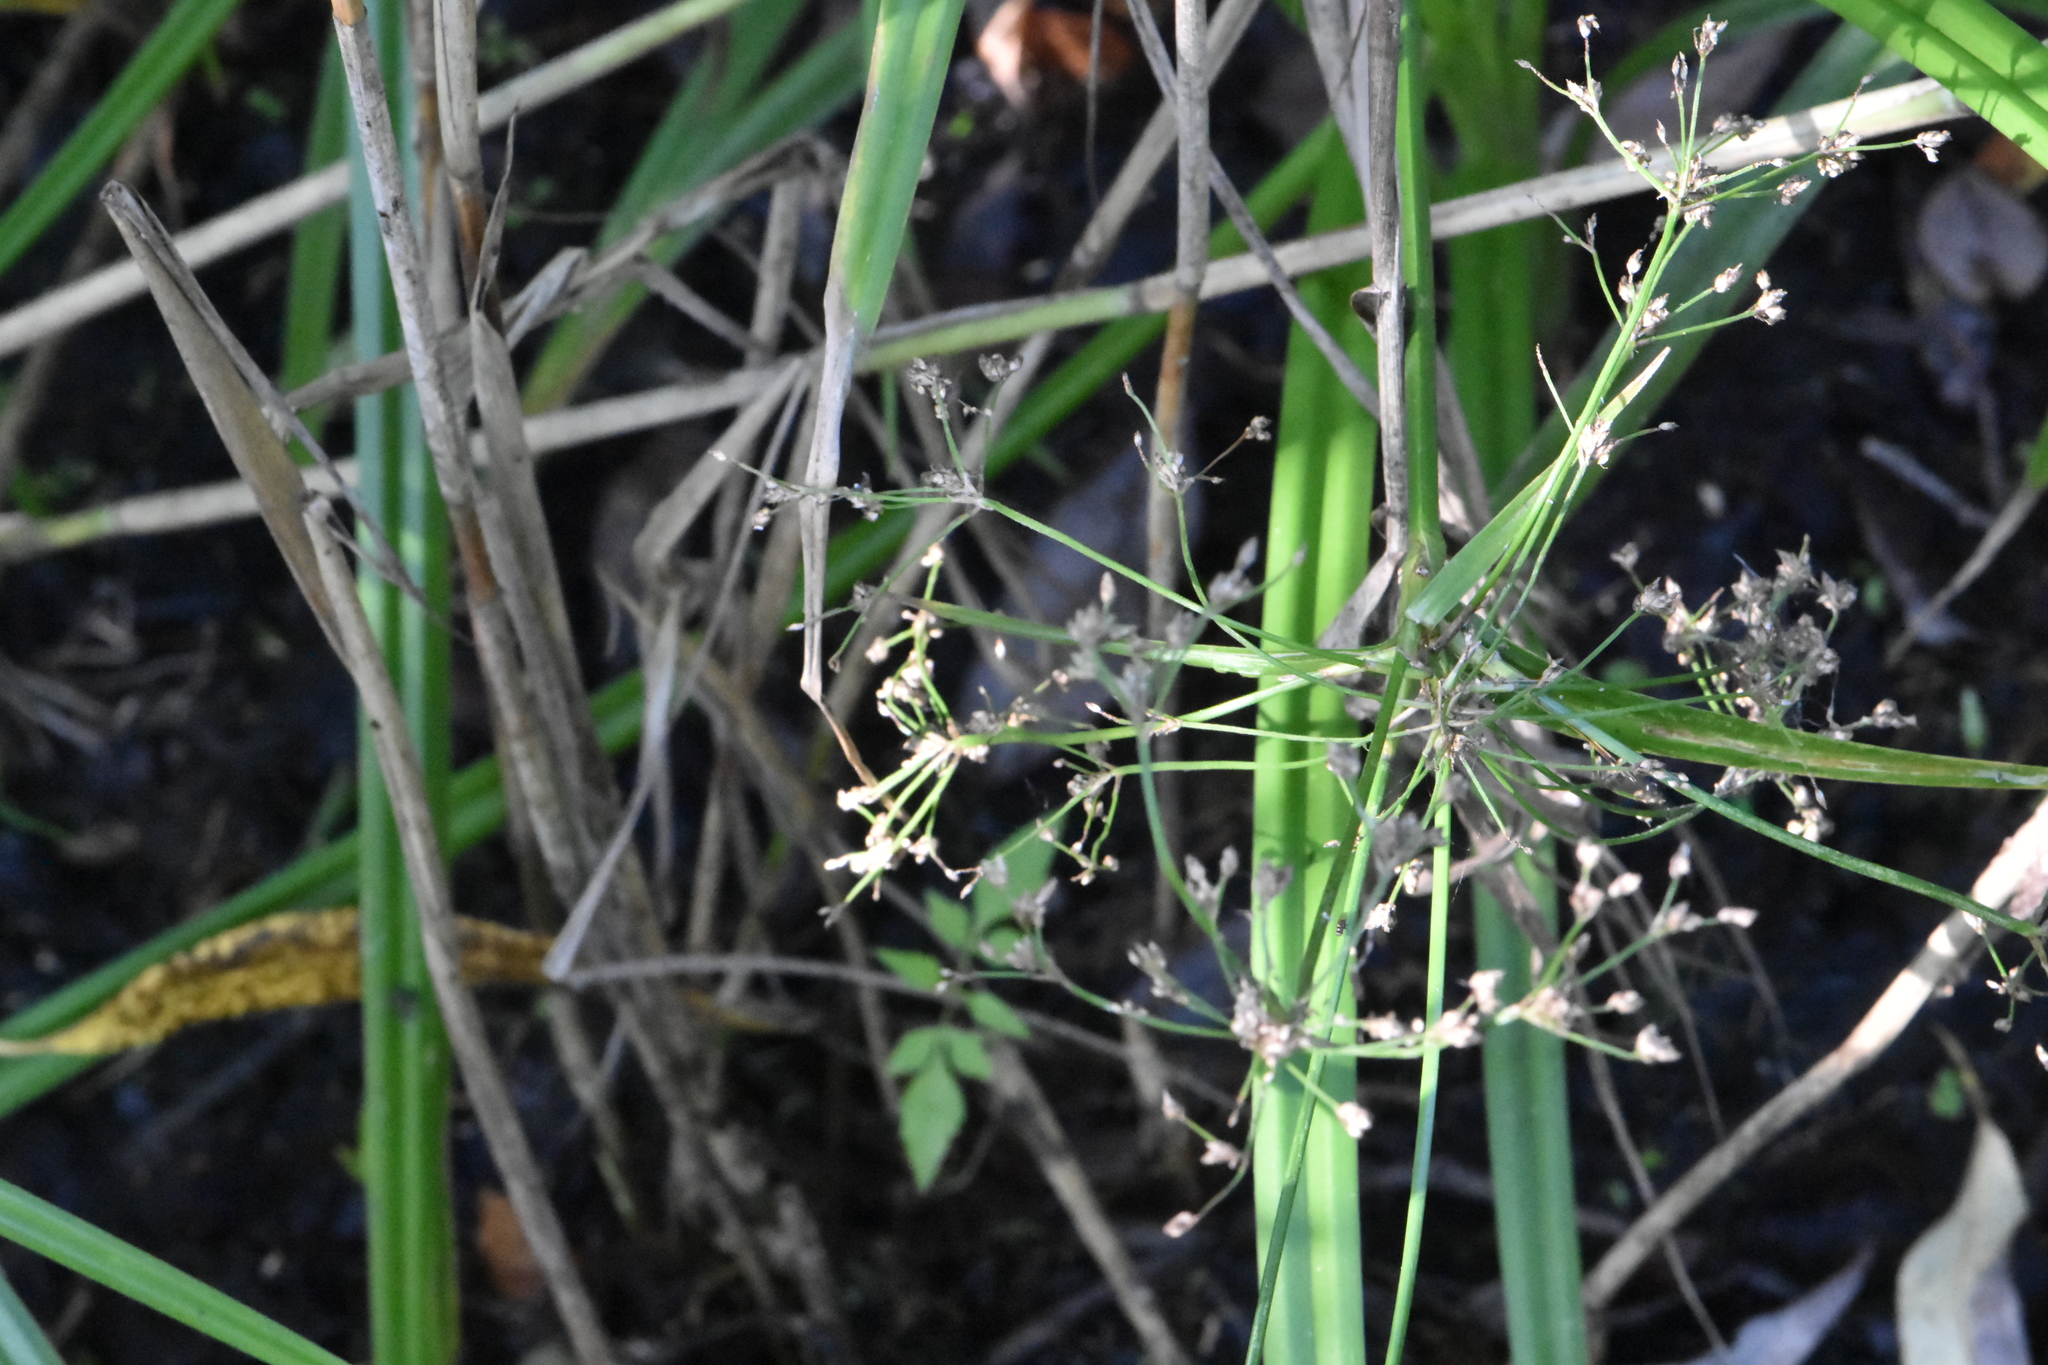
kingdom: Plantae
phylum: Tracheophyta
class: Liliopsida
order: Poales
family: Cyperaceae
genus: Scirpus
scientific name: Scirpus sylvaticus
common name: Wood club-rush
